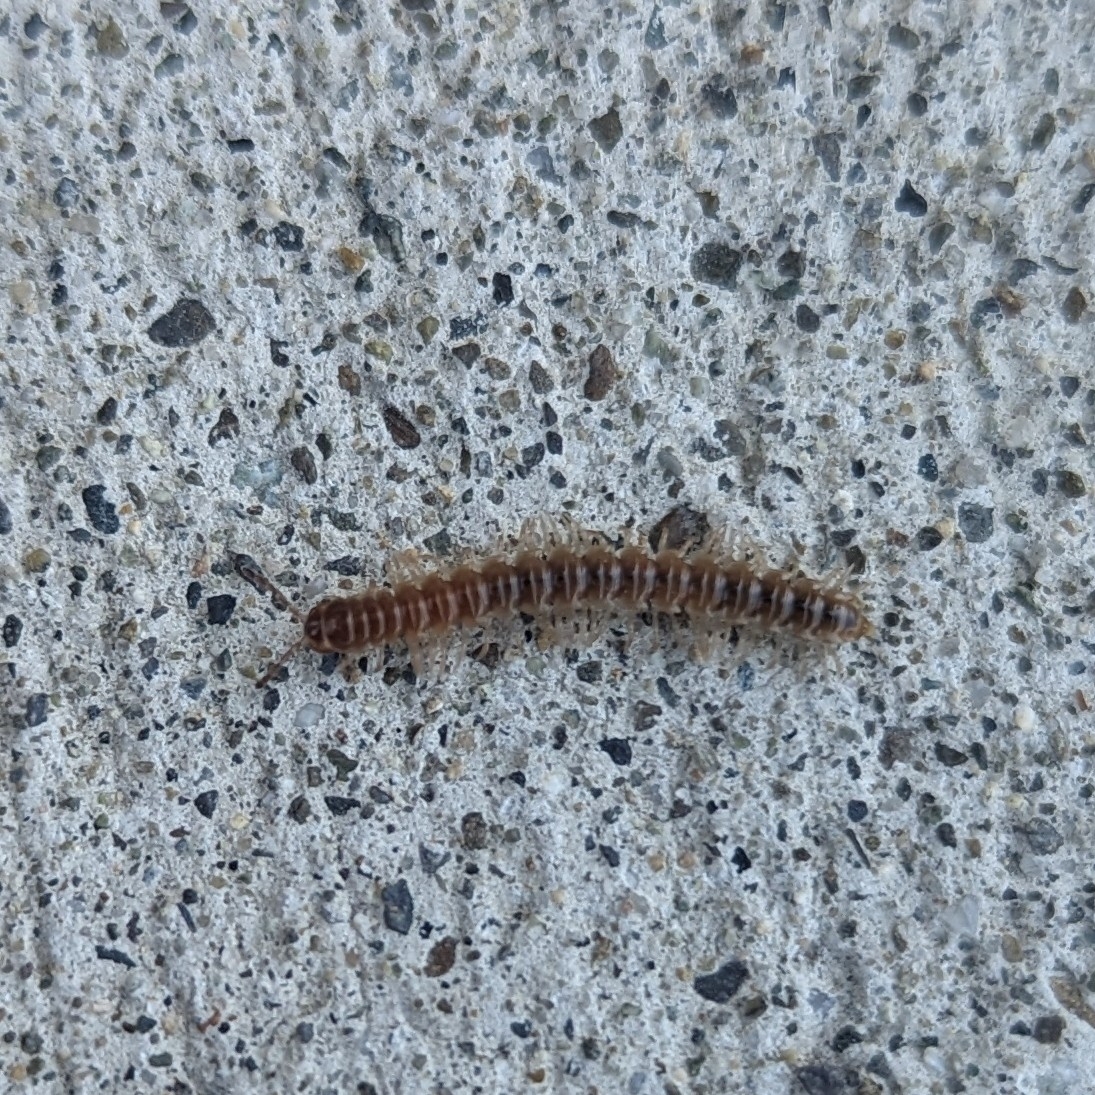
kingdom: Animalia
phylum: Arthropoda
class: Diplopoda
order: Polydesmida
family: Paradoxosomatidae
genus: Oxidus
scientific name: Oxidus gracilis
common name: Greenhouse millipede
